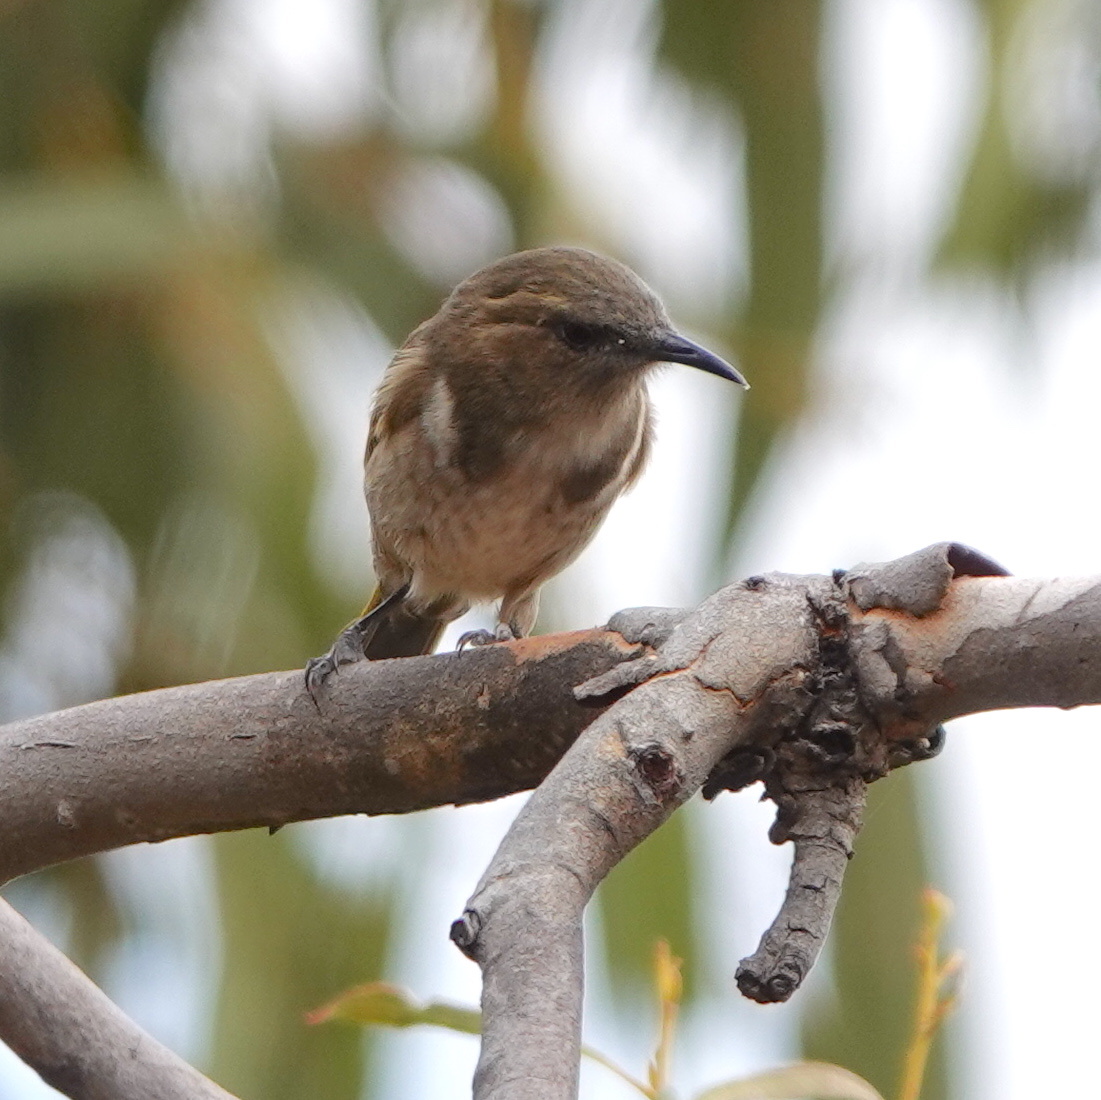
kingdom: Animalia
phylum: Chordata
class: Aves
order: Passeriformes
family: Meliphagidae
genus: Phylidonyris
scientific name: Phylidonyris pyrrhopterus
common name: Crescent honeyeater
